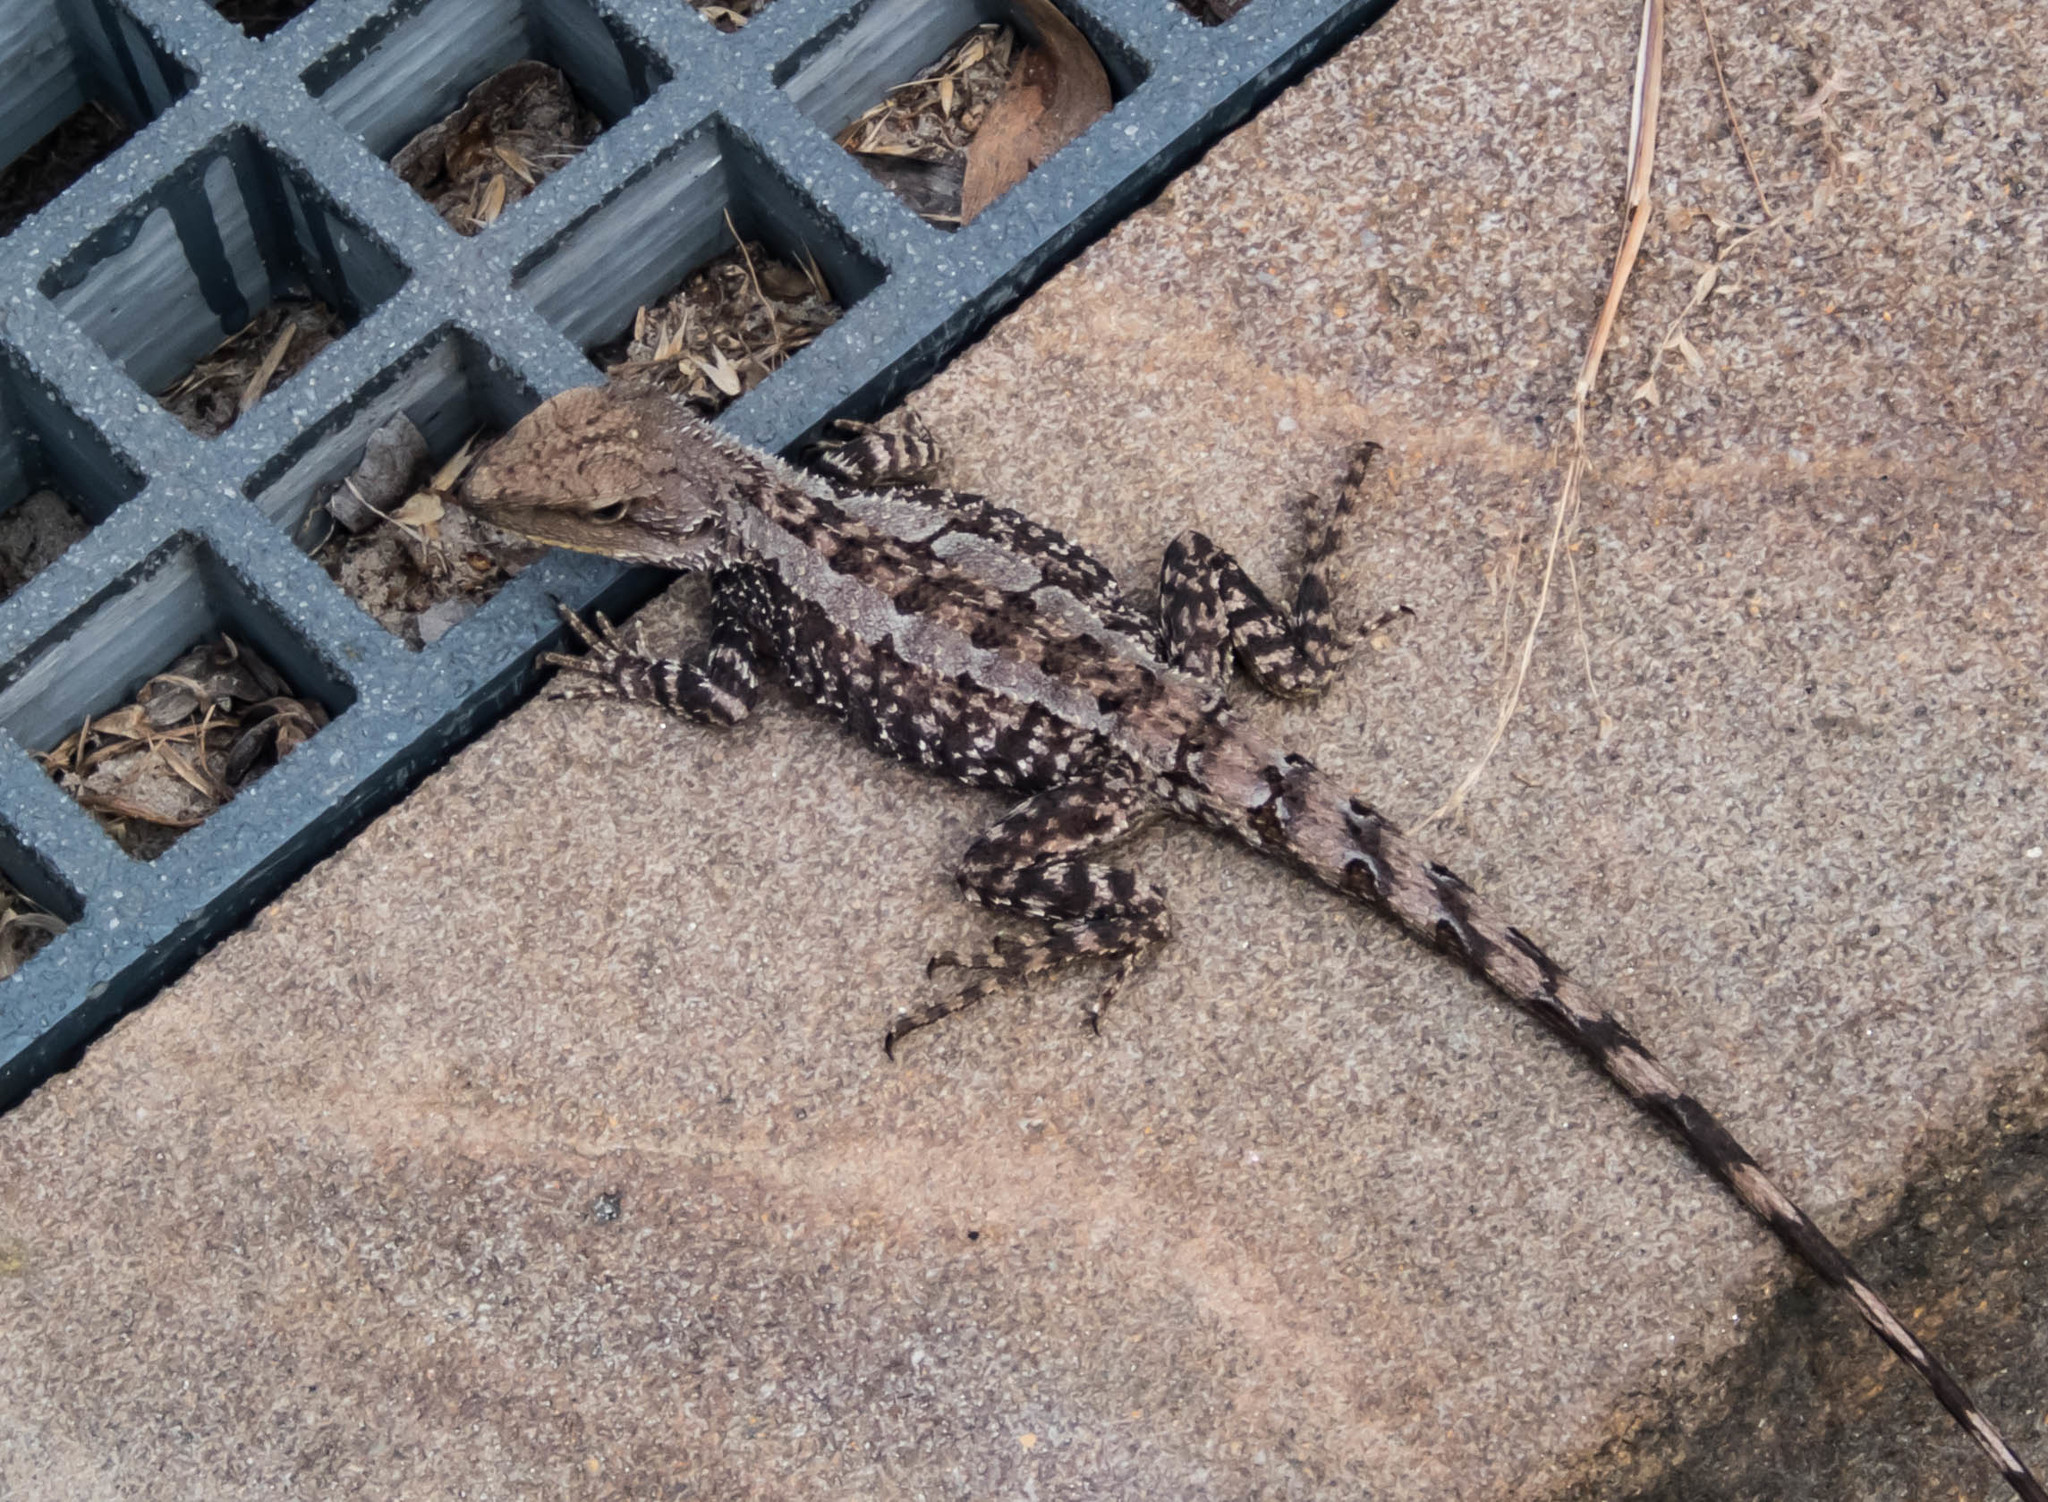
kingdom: Animalia
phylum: Chordata
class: Squamata
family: Agamidae
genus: Amphibolurus
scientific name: Amphibolurus muricatus
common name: Jacky lizard
